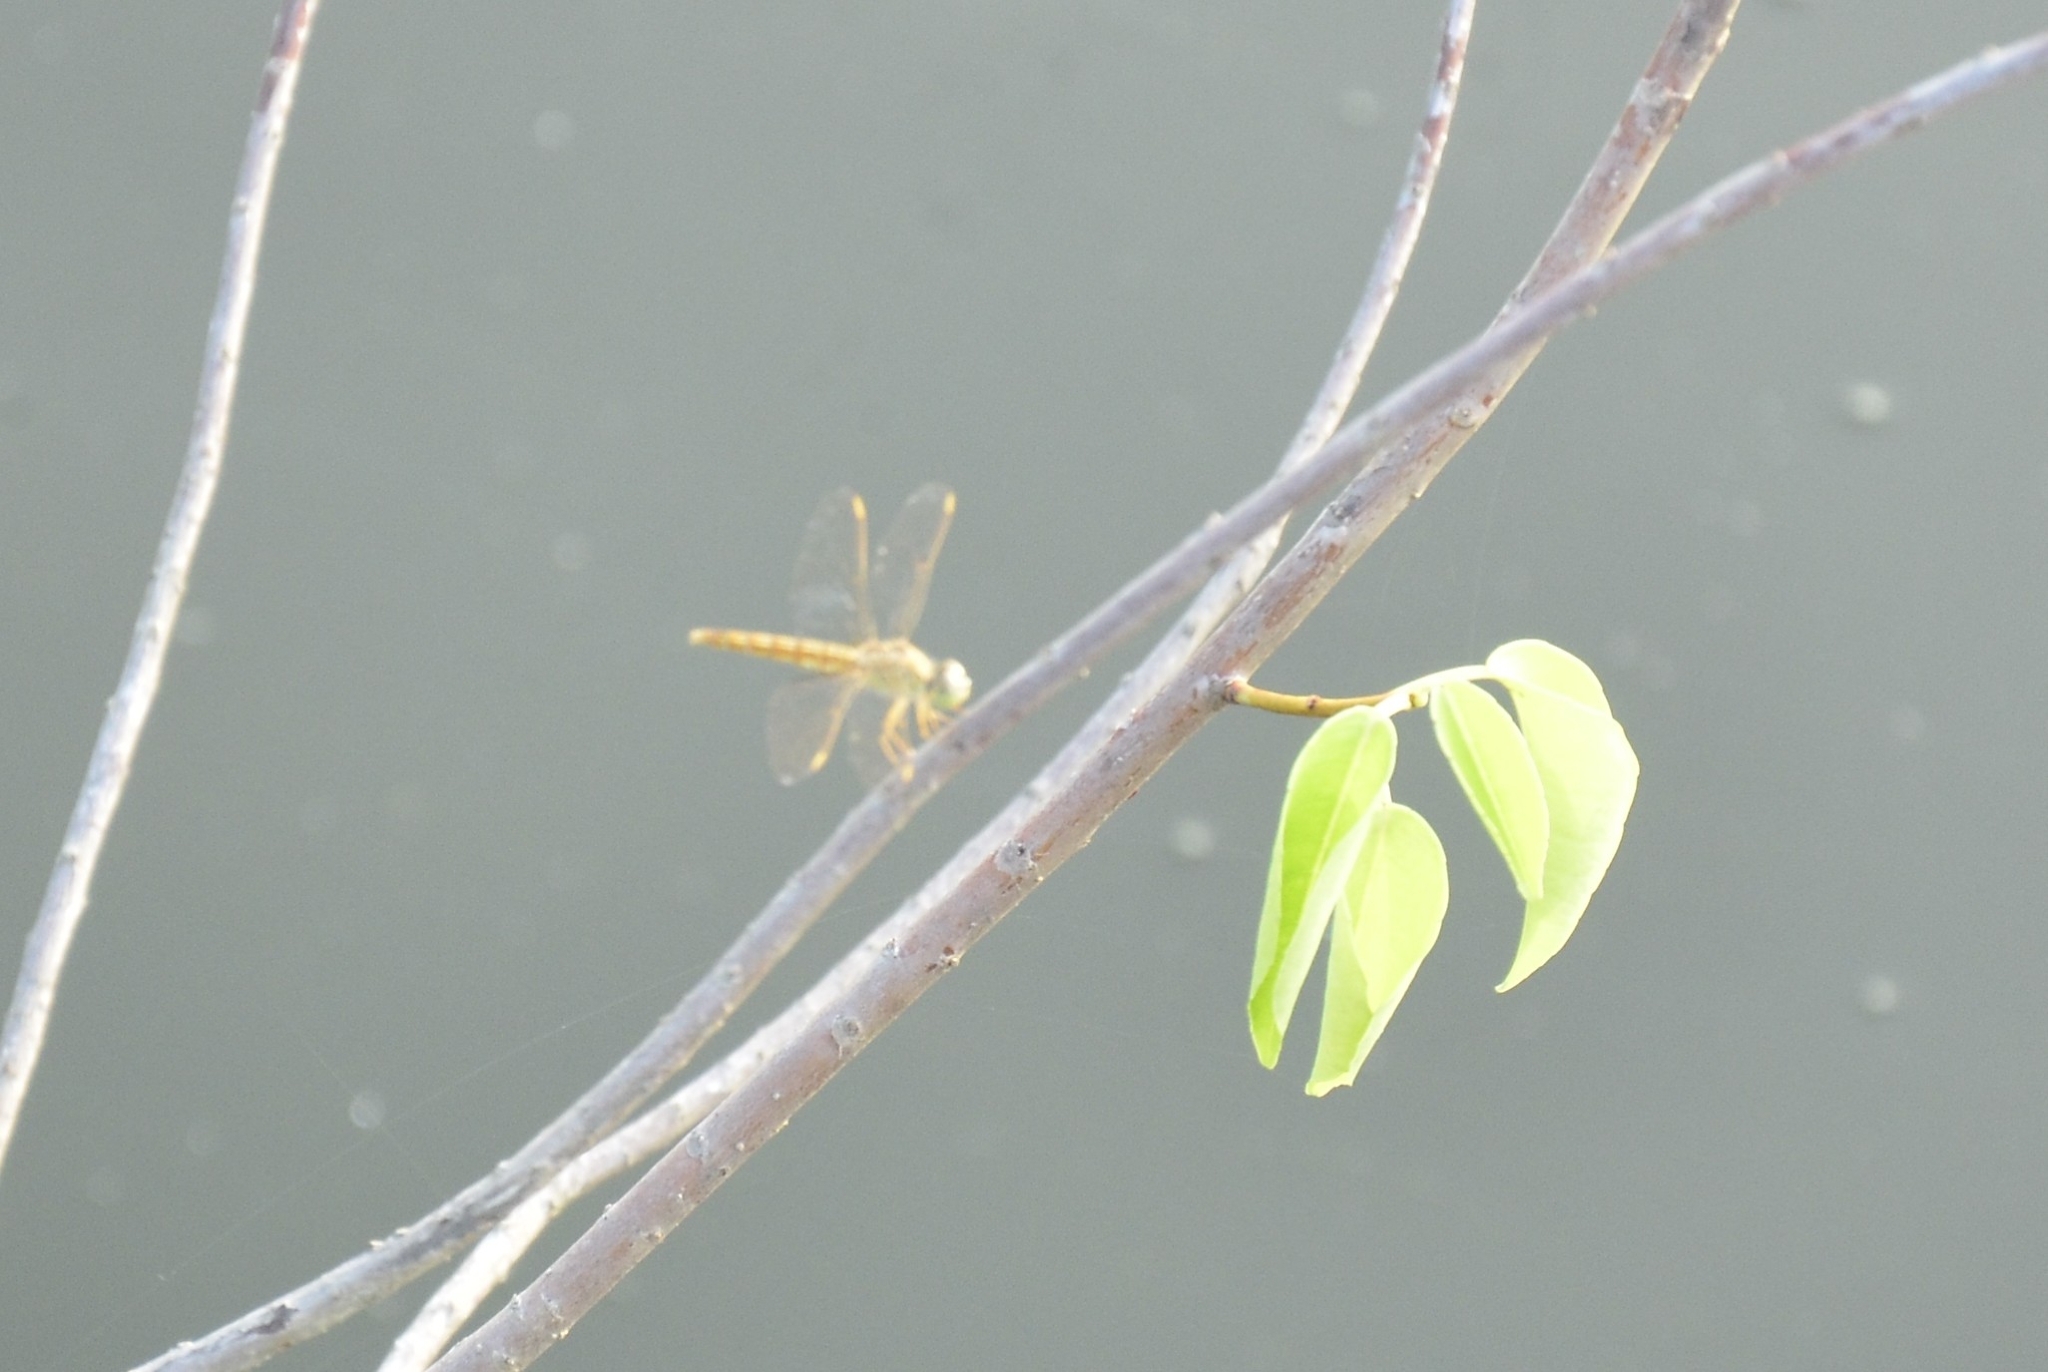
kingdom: Animalia
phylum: Arthropoda
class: Insecta
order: Odonata
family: Libellulidae
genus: Brachythemis
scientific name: Brachythemis contaminata
